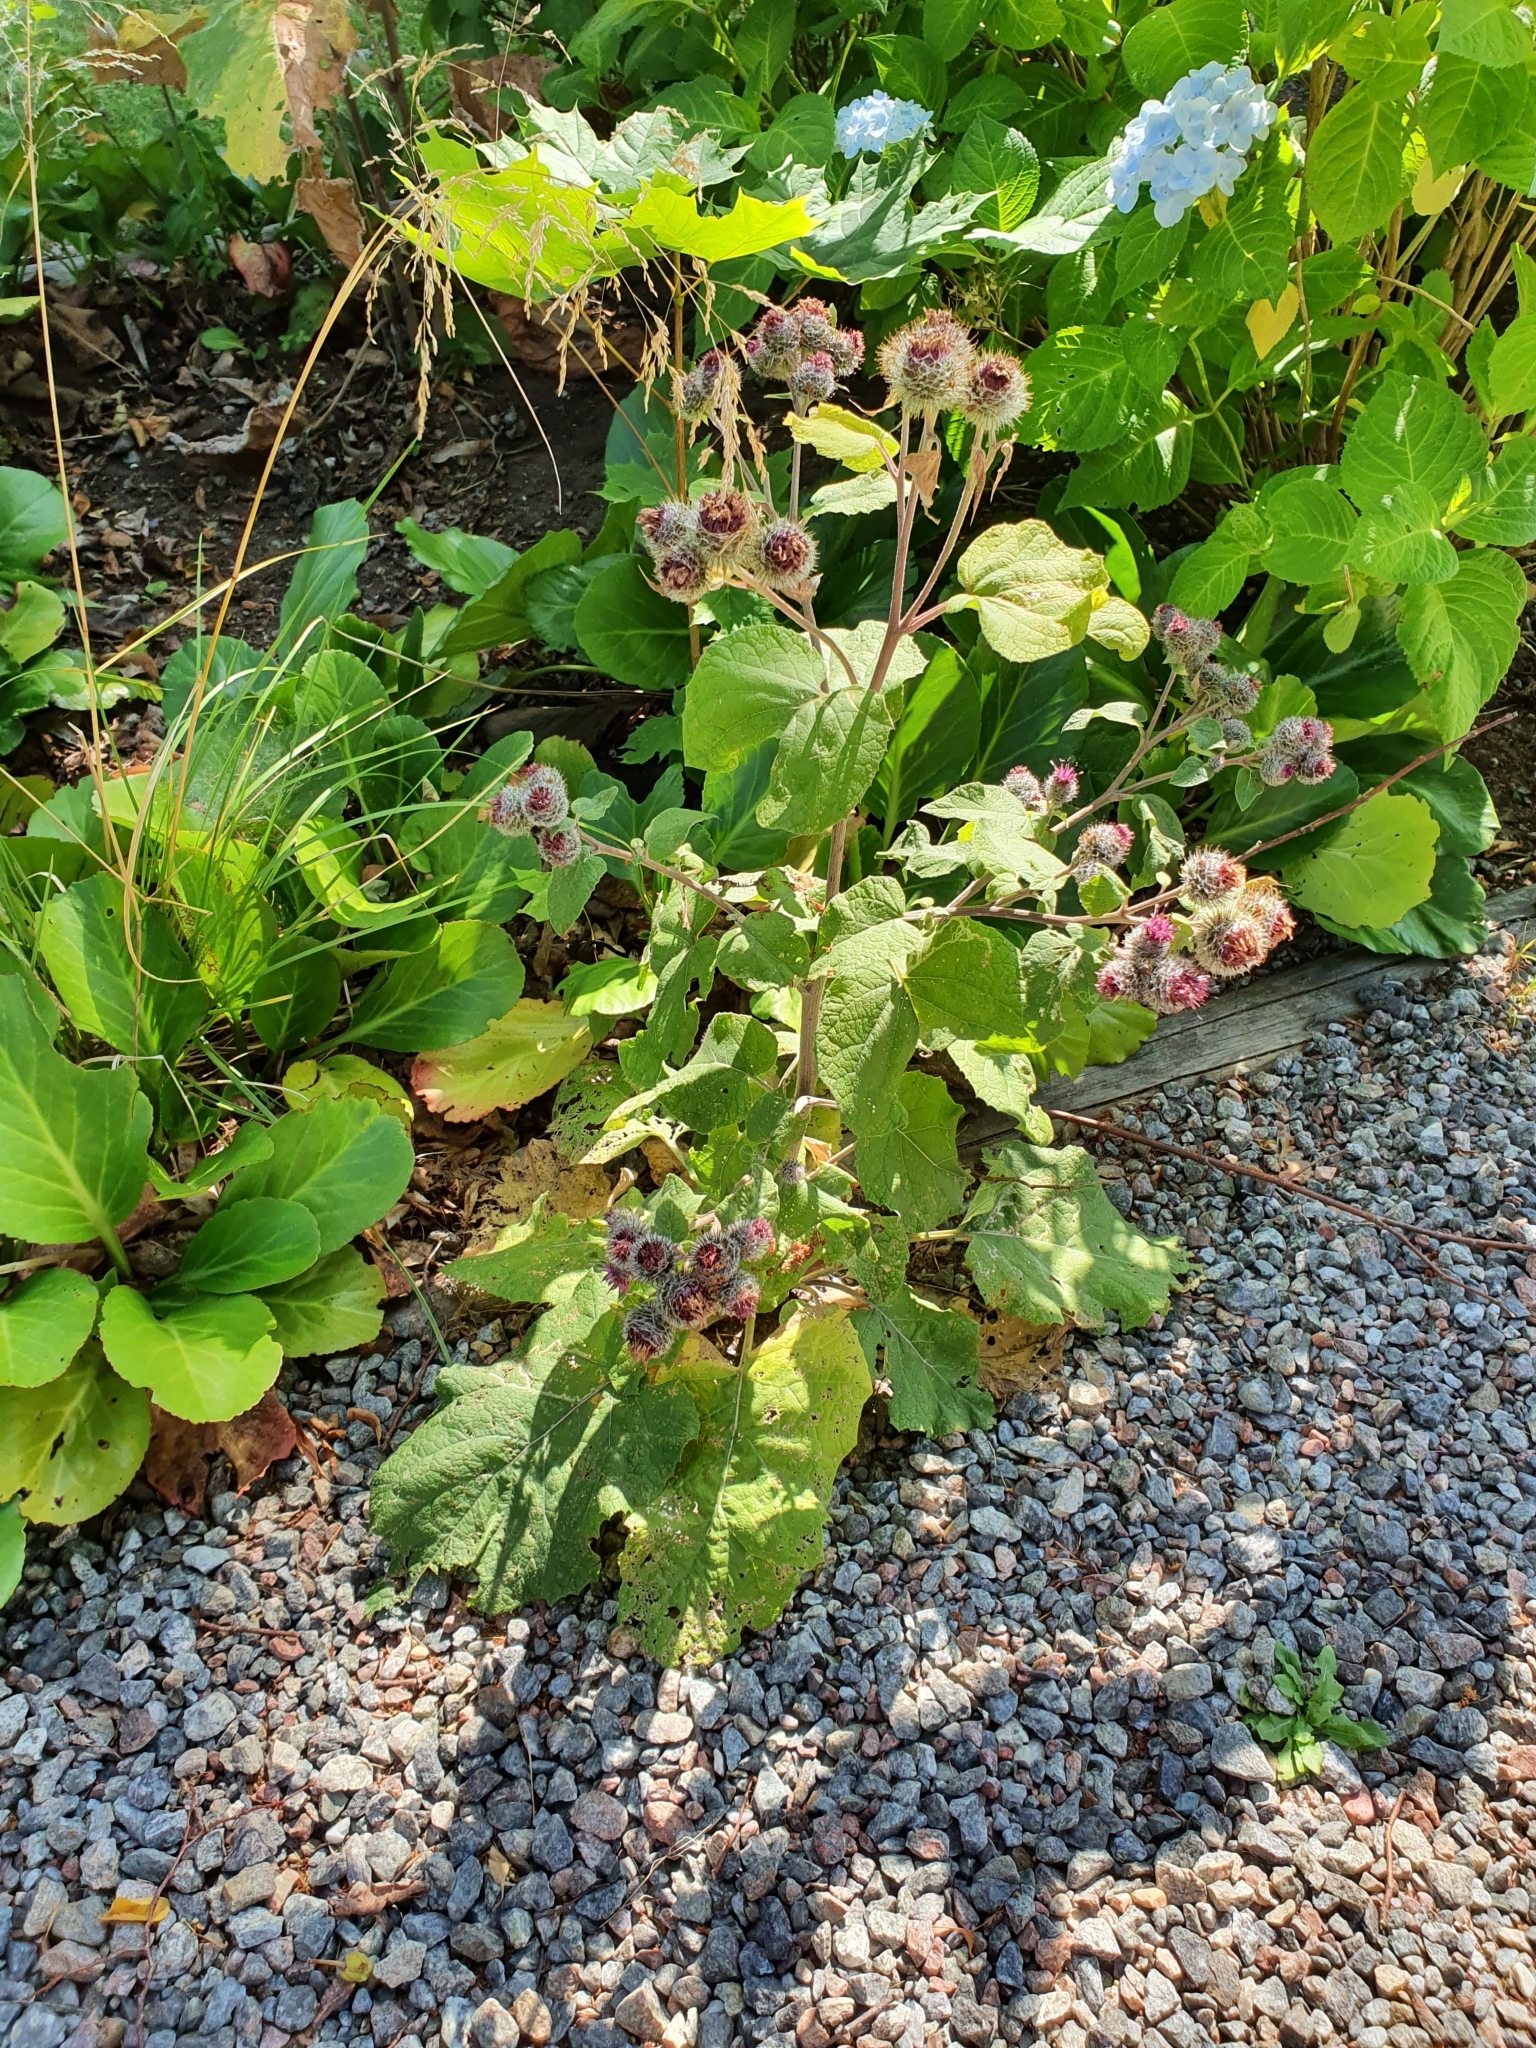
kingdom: Plantae
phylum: Tracheophyta
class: Magnoliopsida
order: Asterales
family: Asteraceae
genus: Arctium
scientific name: Arctium tomentosum
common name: Woolly burdock
